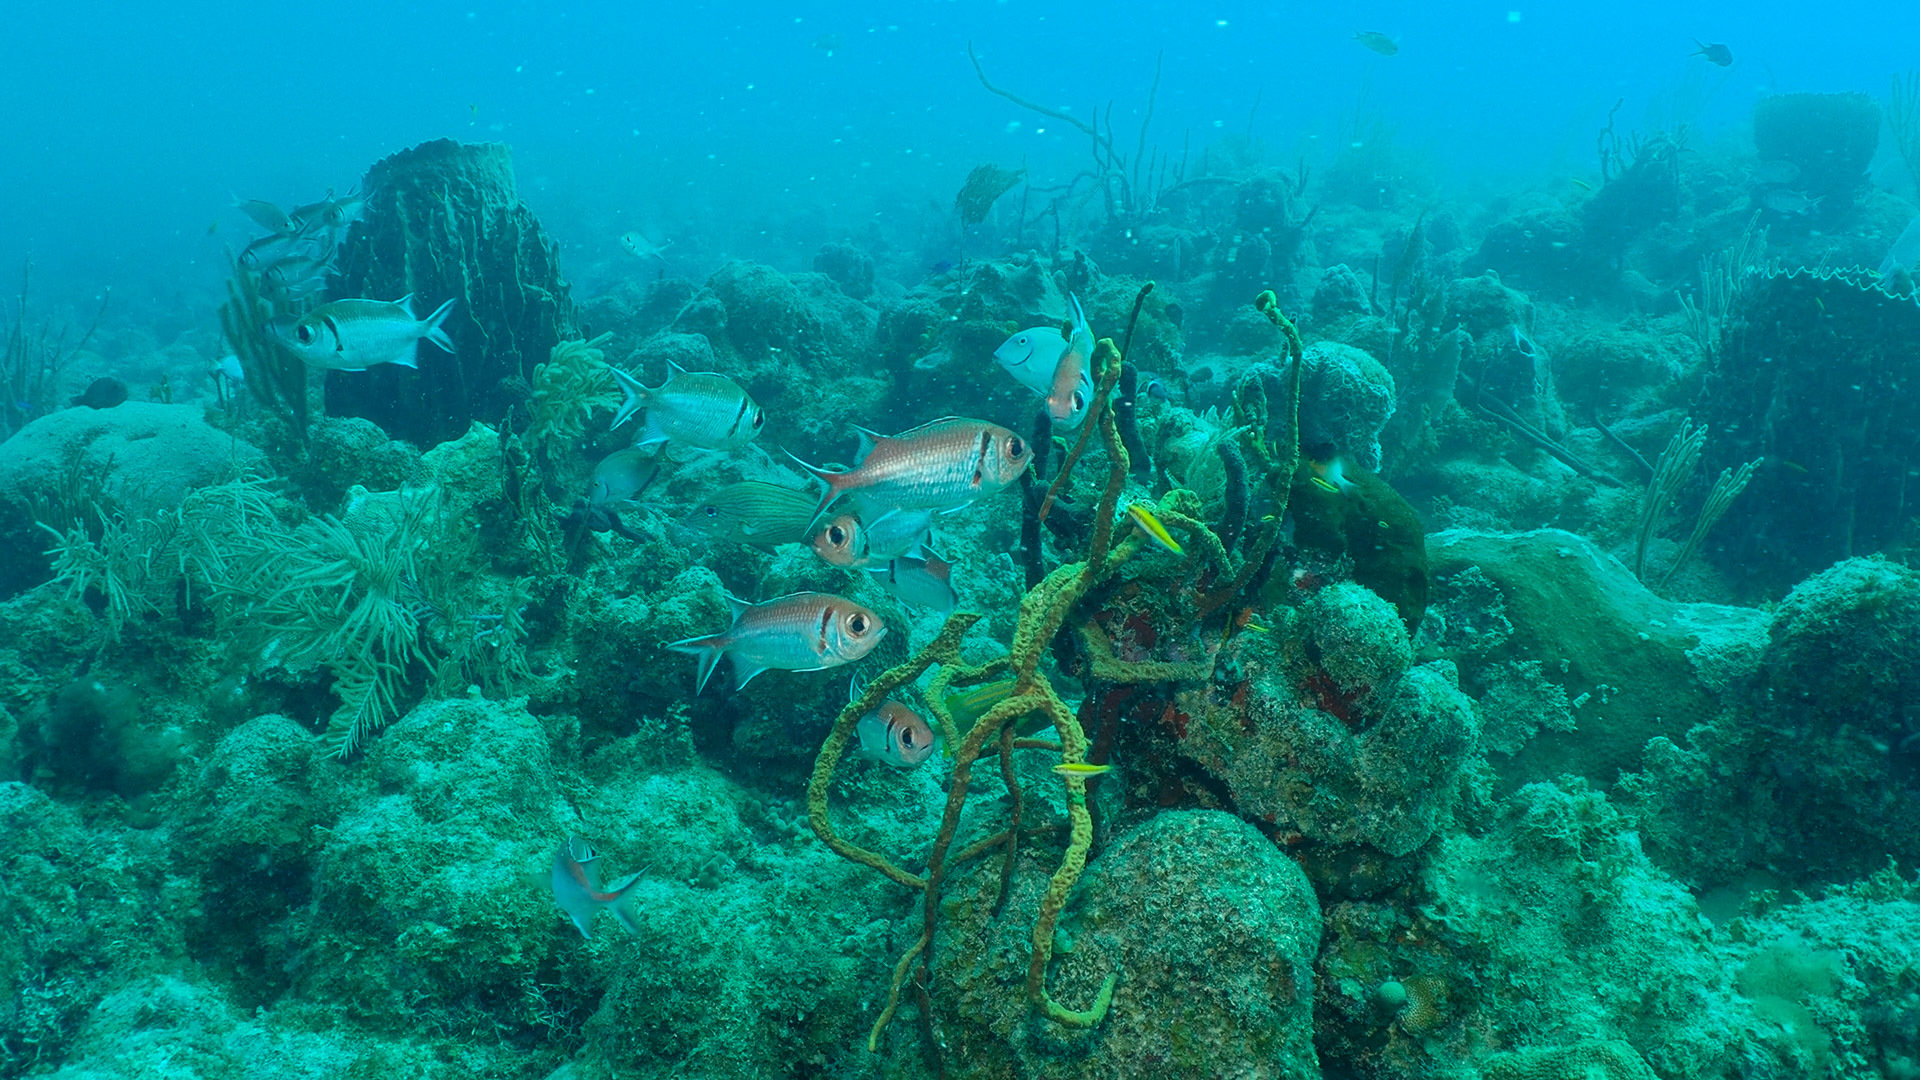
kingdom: Animalia
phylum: Chordata
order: Beryciformes
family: Holocentridae
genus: Myripristis
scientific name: Myripristis jacobus
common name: Blackbar soldierfish
